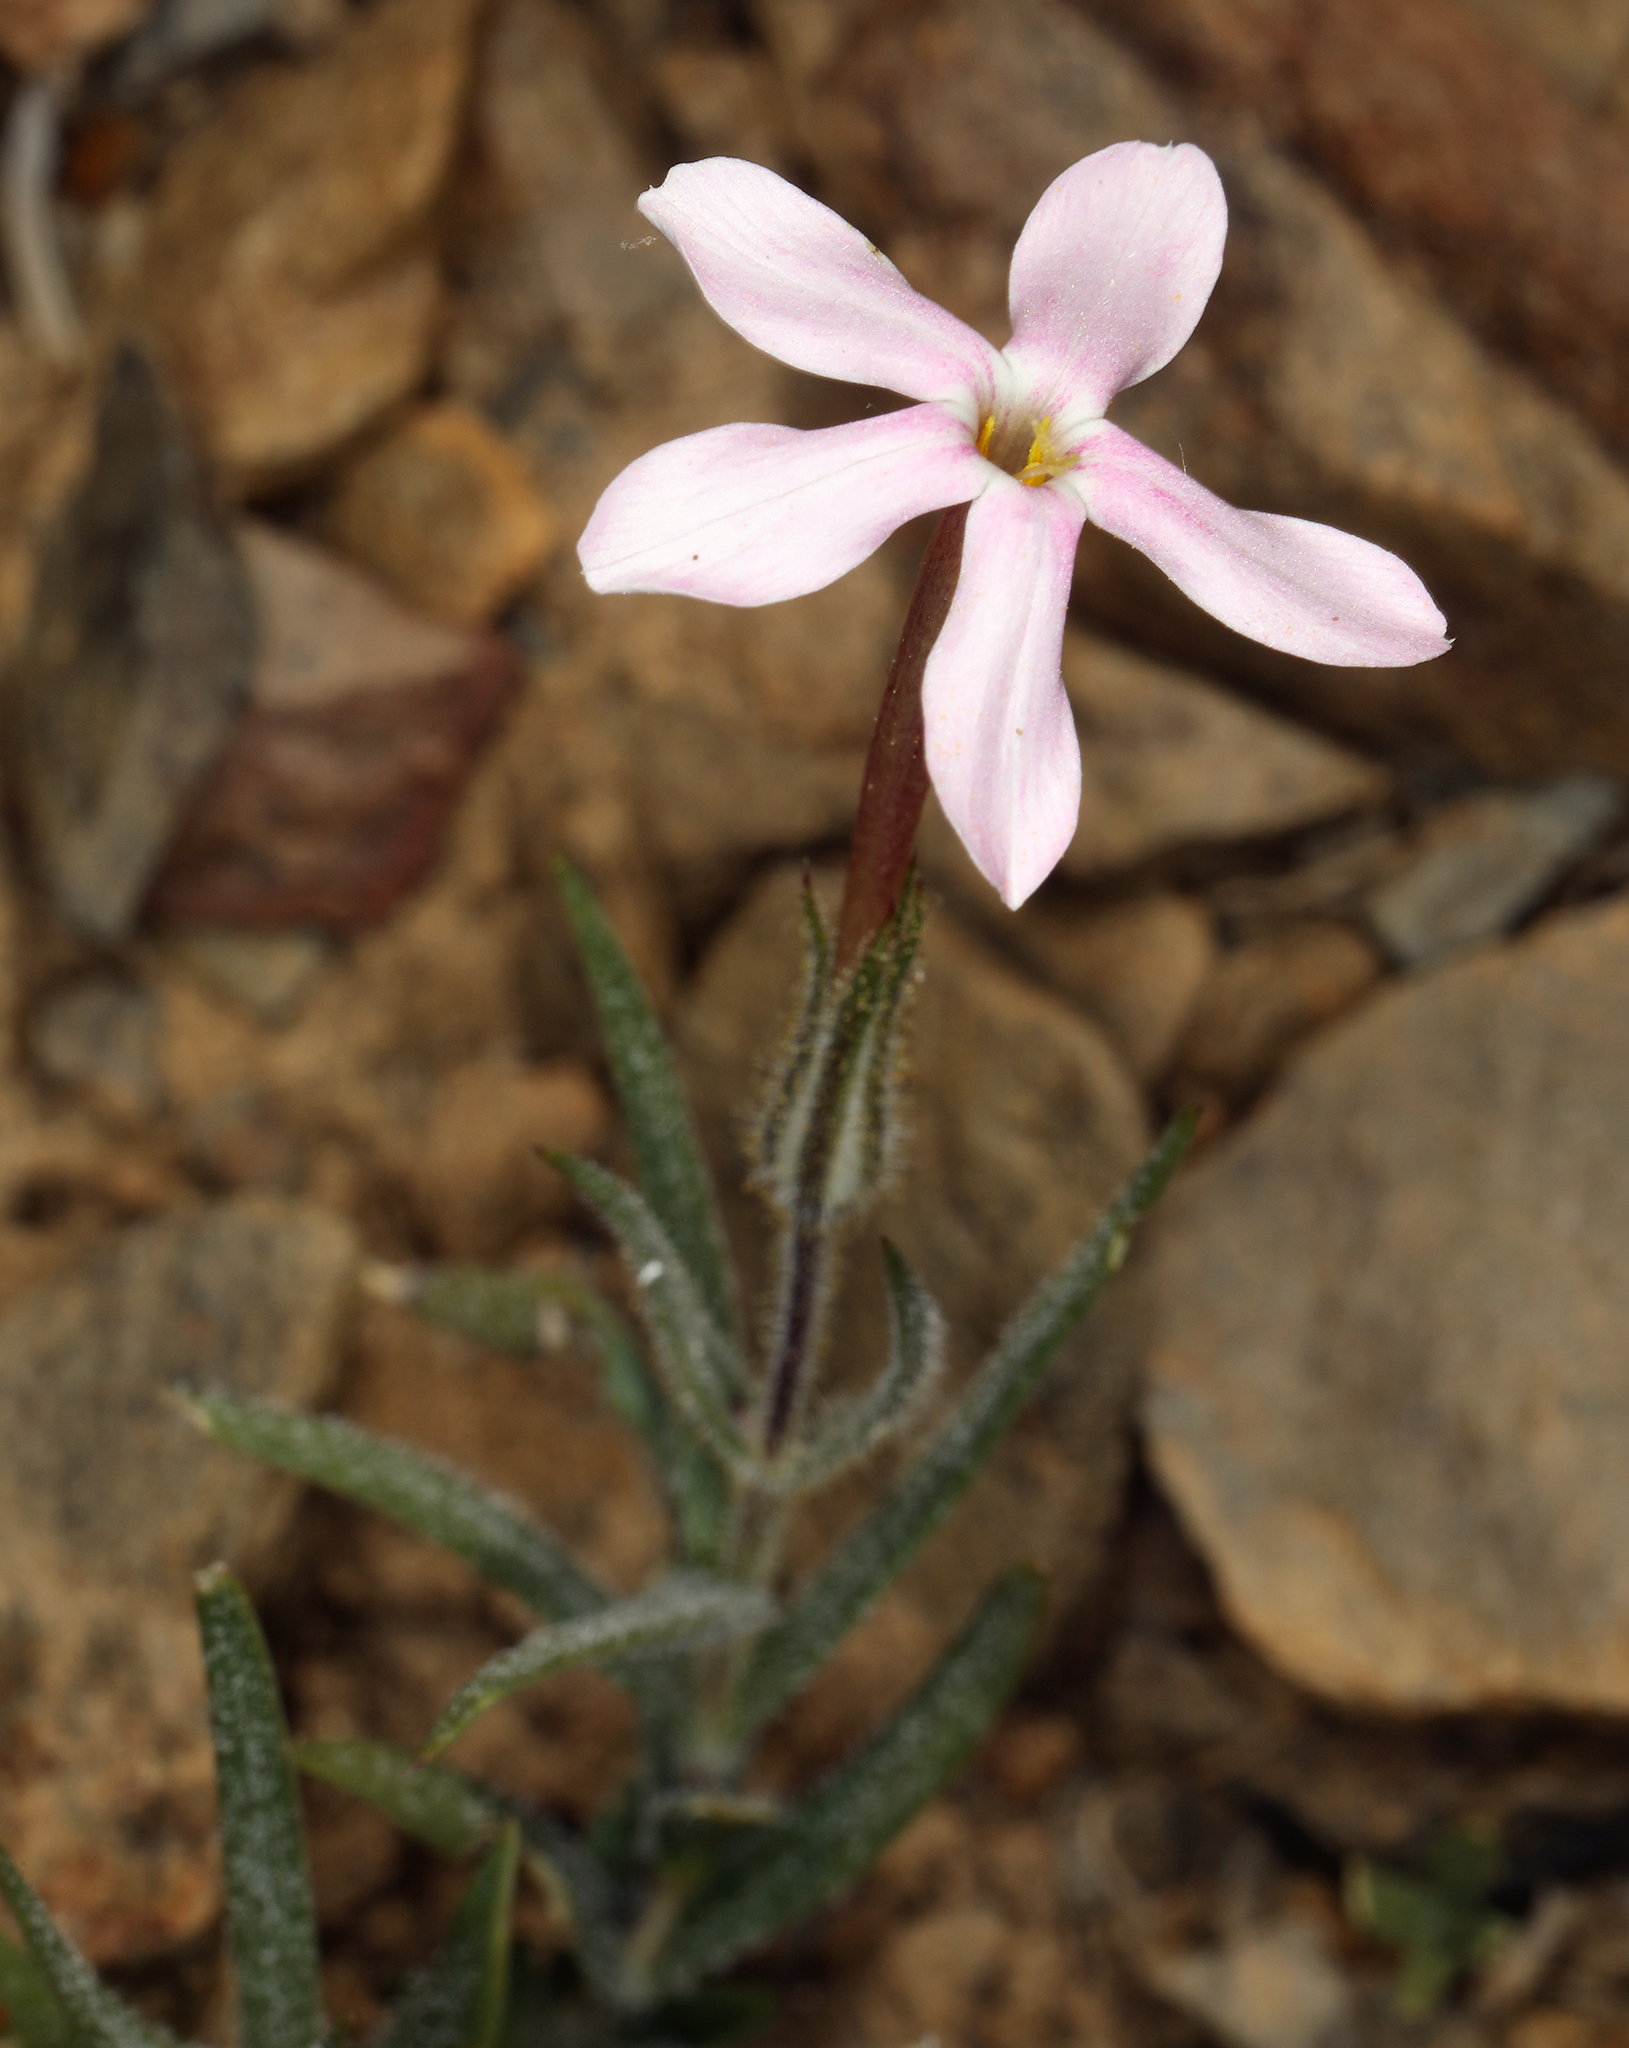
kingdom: Plantae
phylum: Tracheophyta
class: Magnoliopsida
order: Ericales
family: Polemoniaceae
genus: Phlox
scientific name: Phlox longifolia
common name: Longleaf phlox
